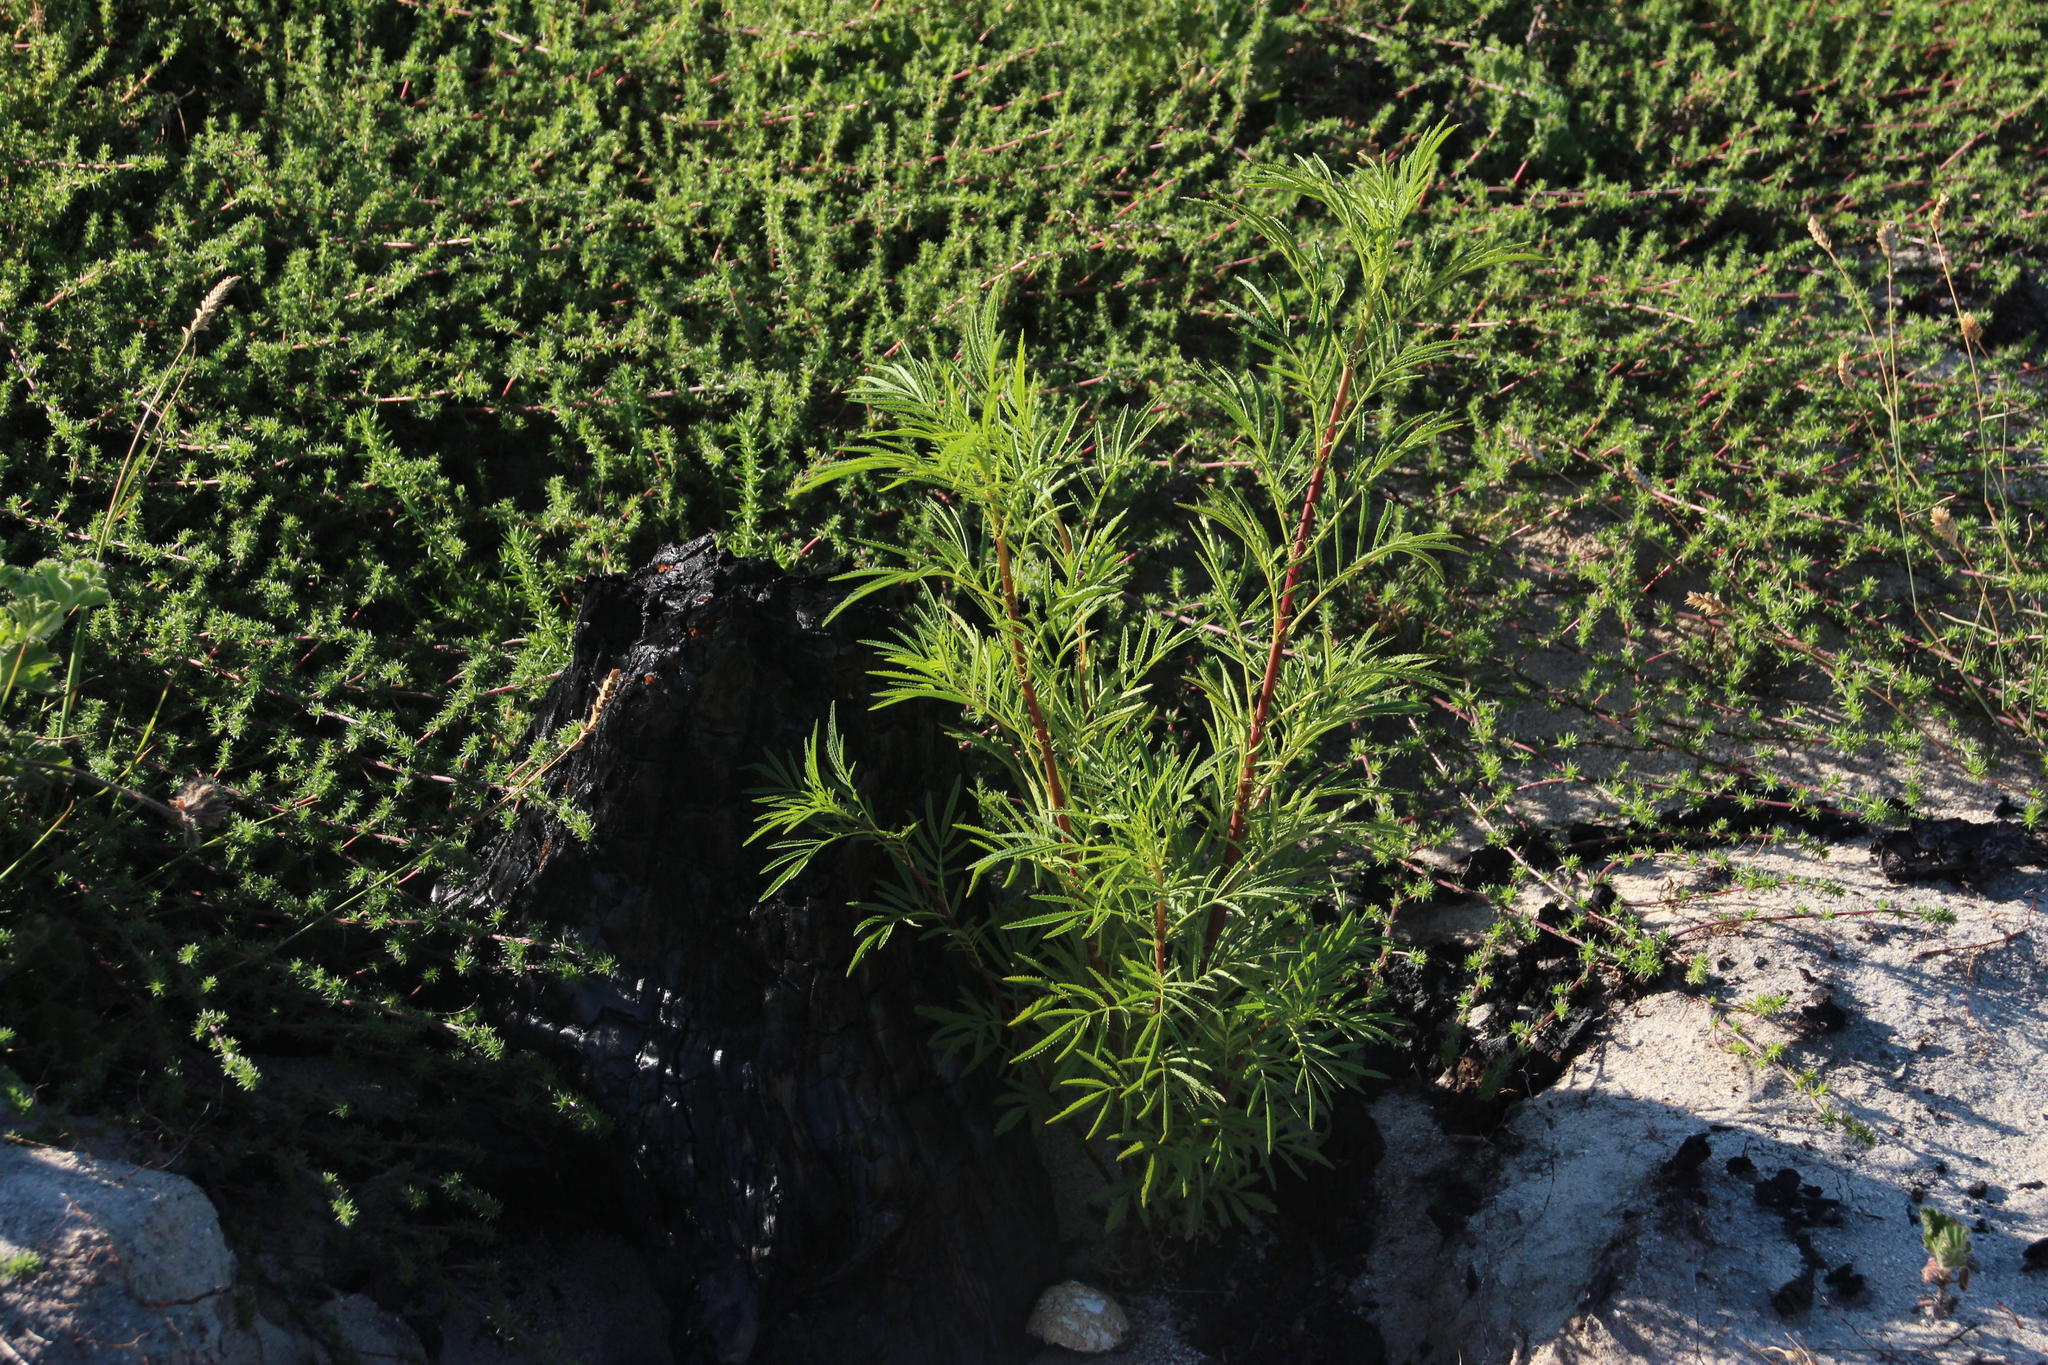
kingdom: Plantae
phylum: Tracheophyta
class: Magnoliopsida
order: Asterales
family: Asteraceae
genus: Tagetes
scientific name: Tagetes minuta
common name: Muster john henry
